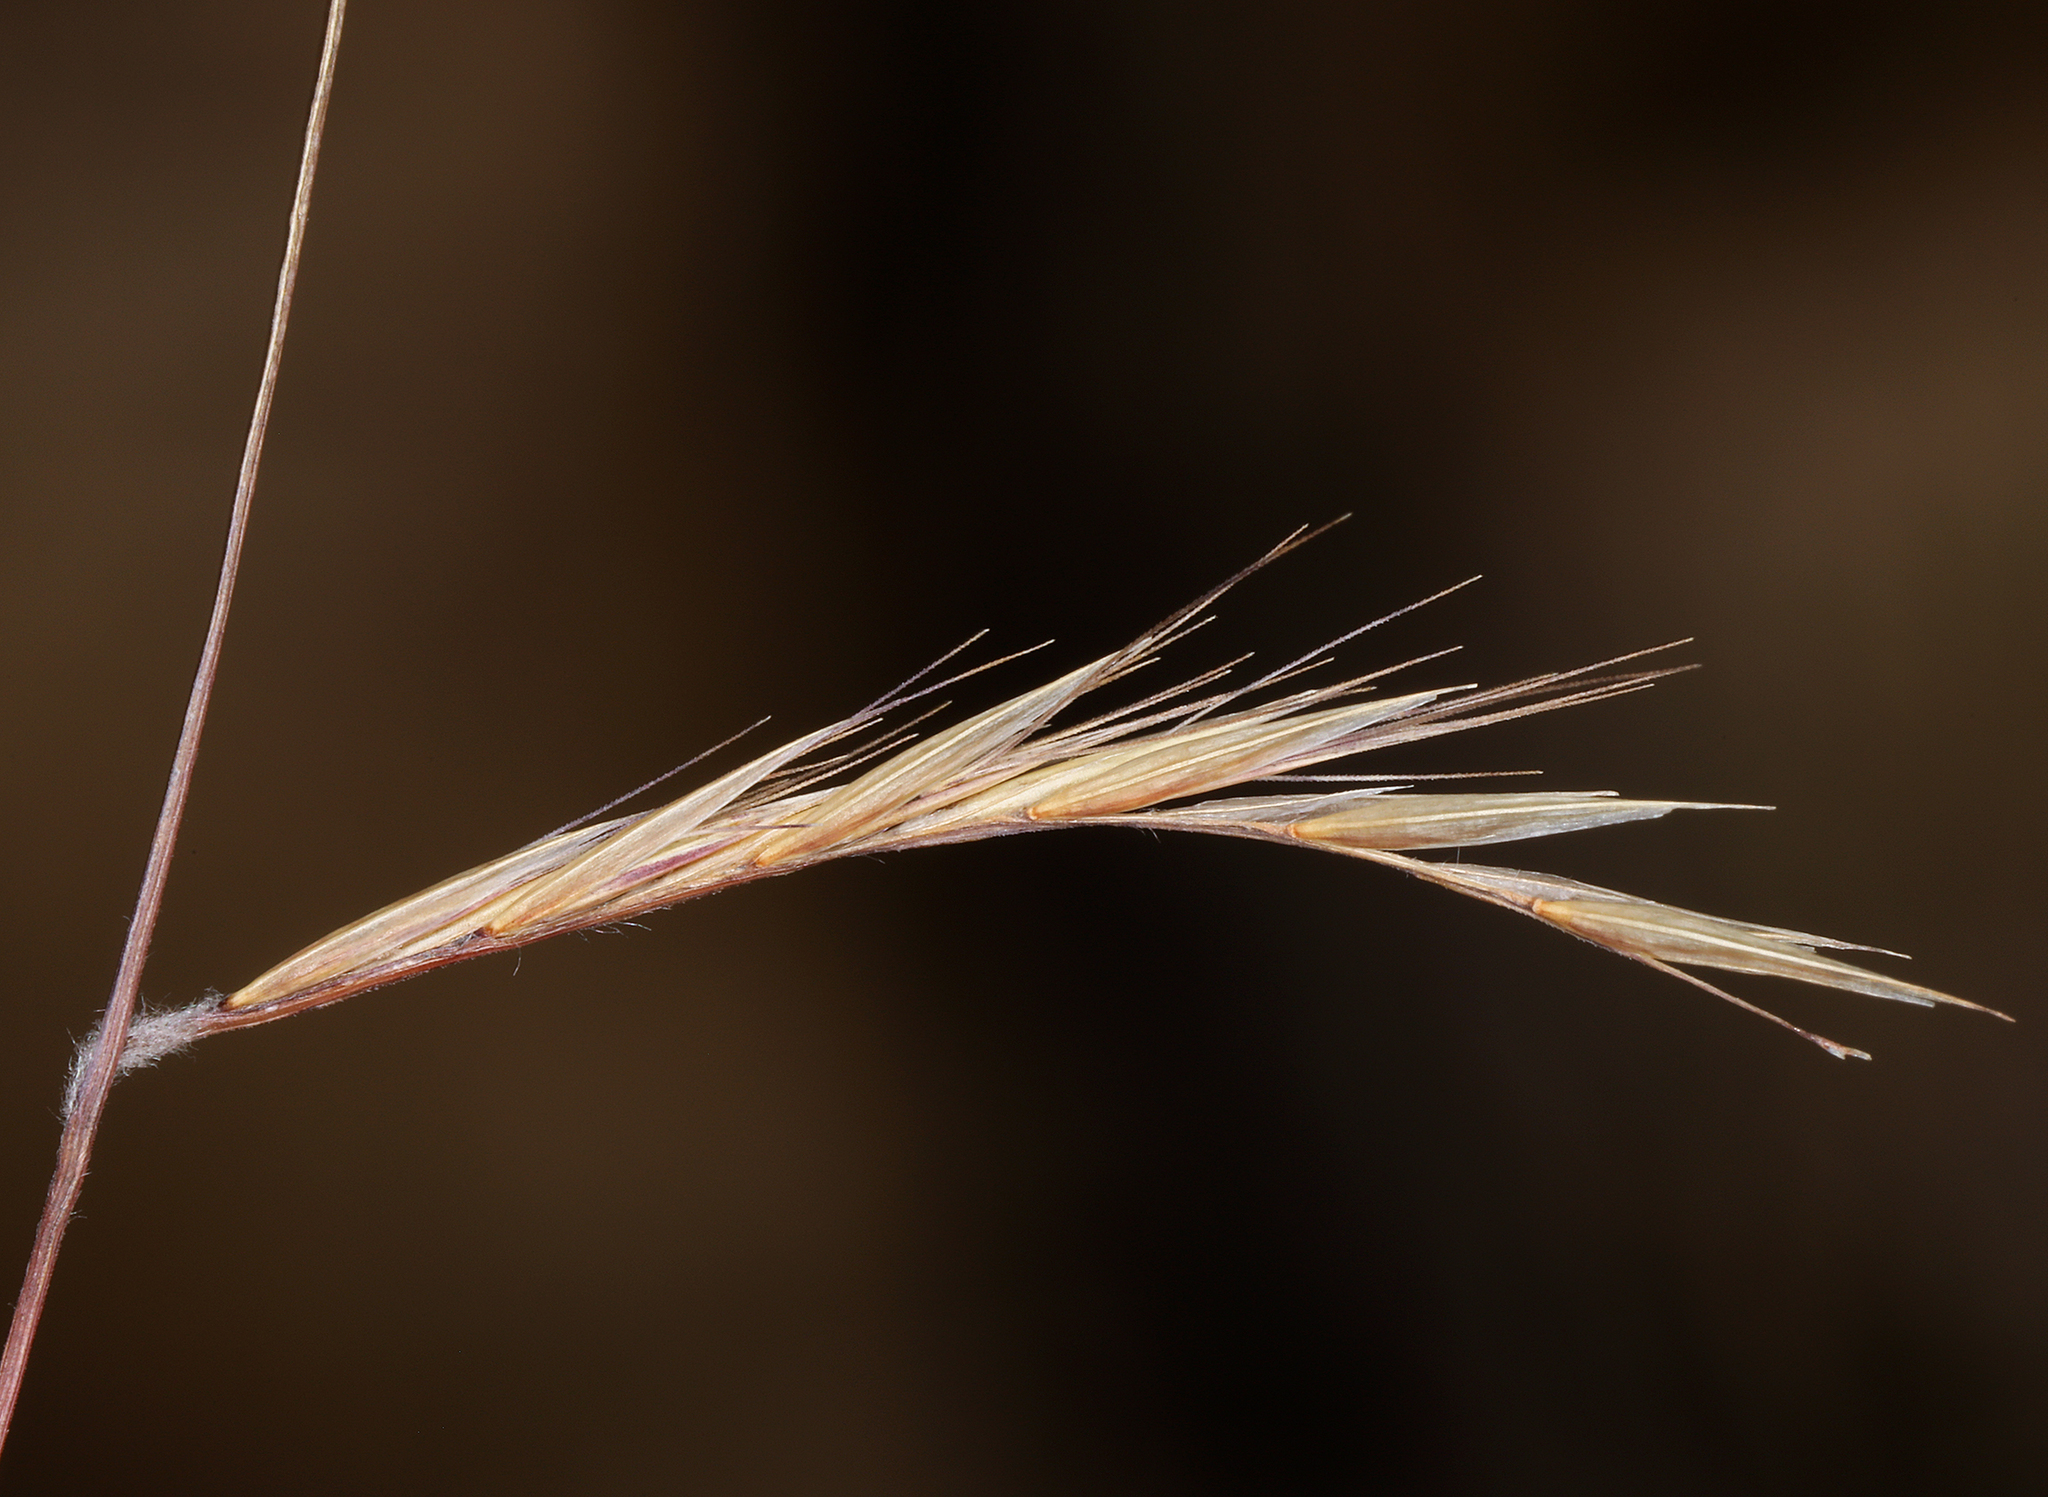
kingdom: Plantae
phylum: Tracheophyta
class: Liliopsida
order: Poales
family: Poaceae
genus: Bouteloua
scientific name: Bouteloua eriopoda
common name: Woolly foot grama
